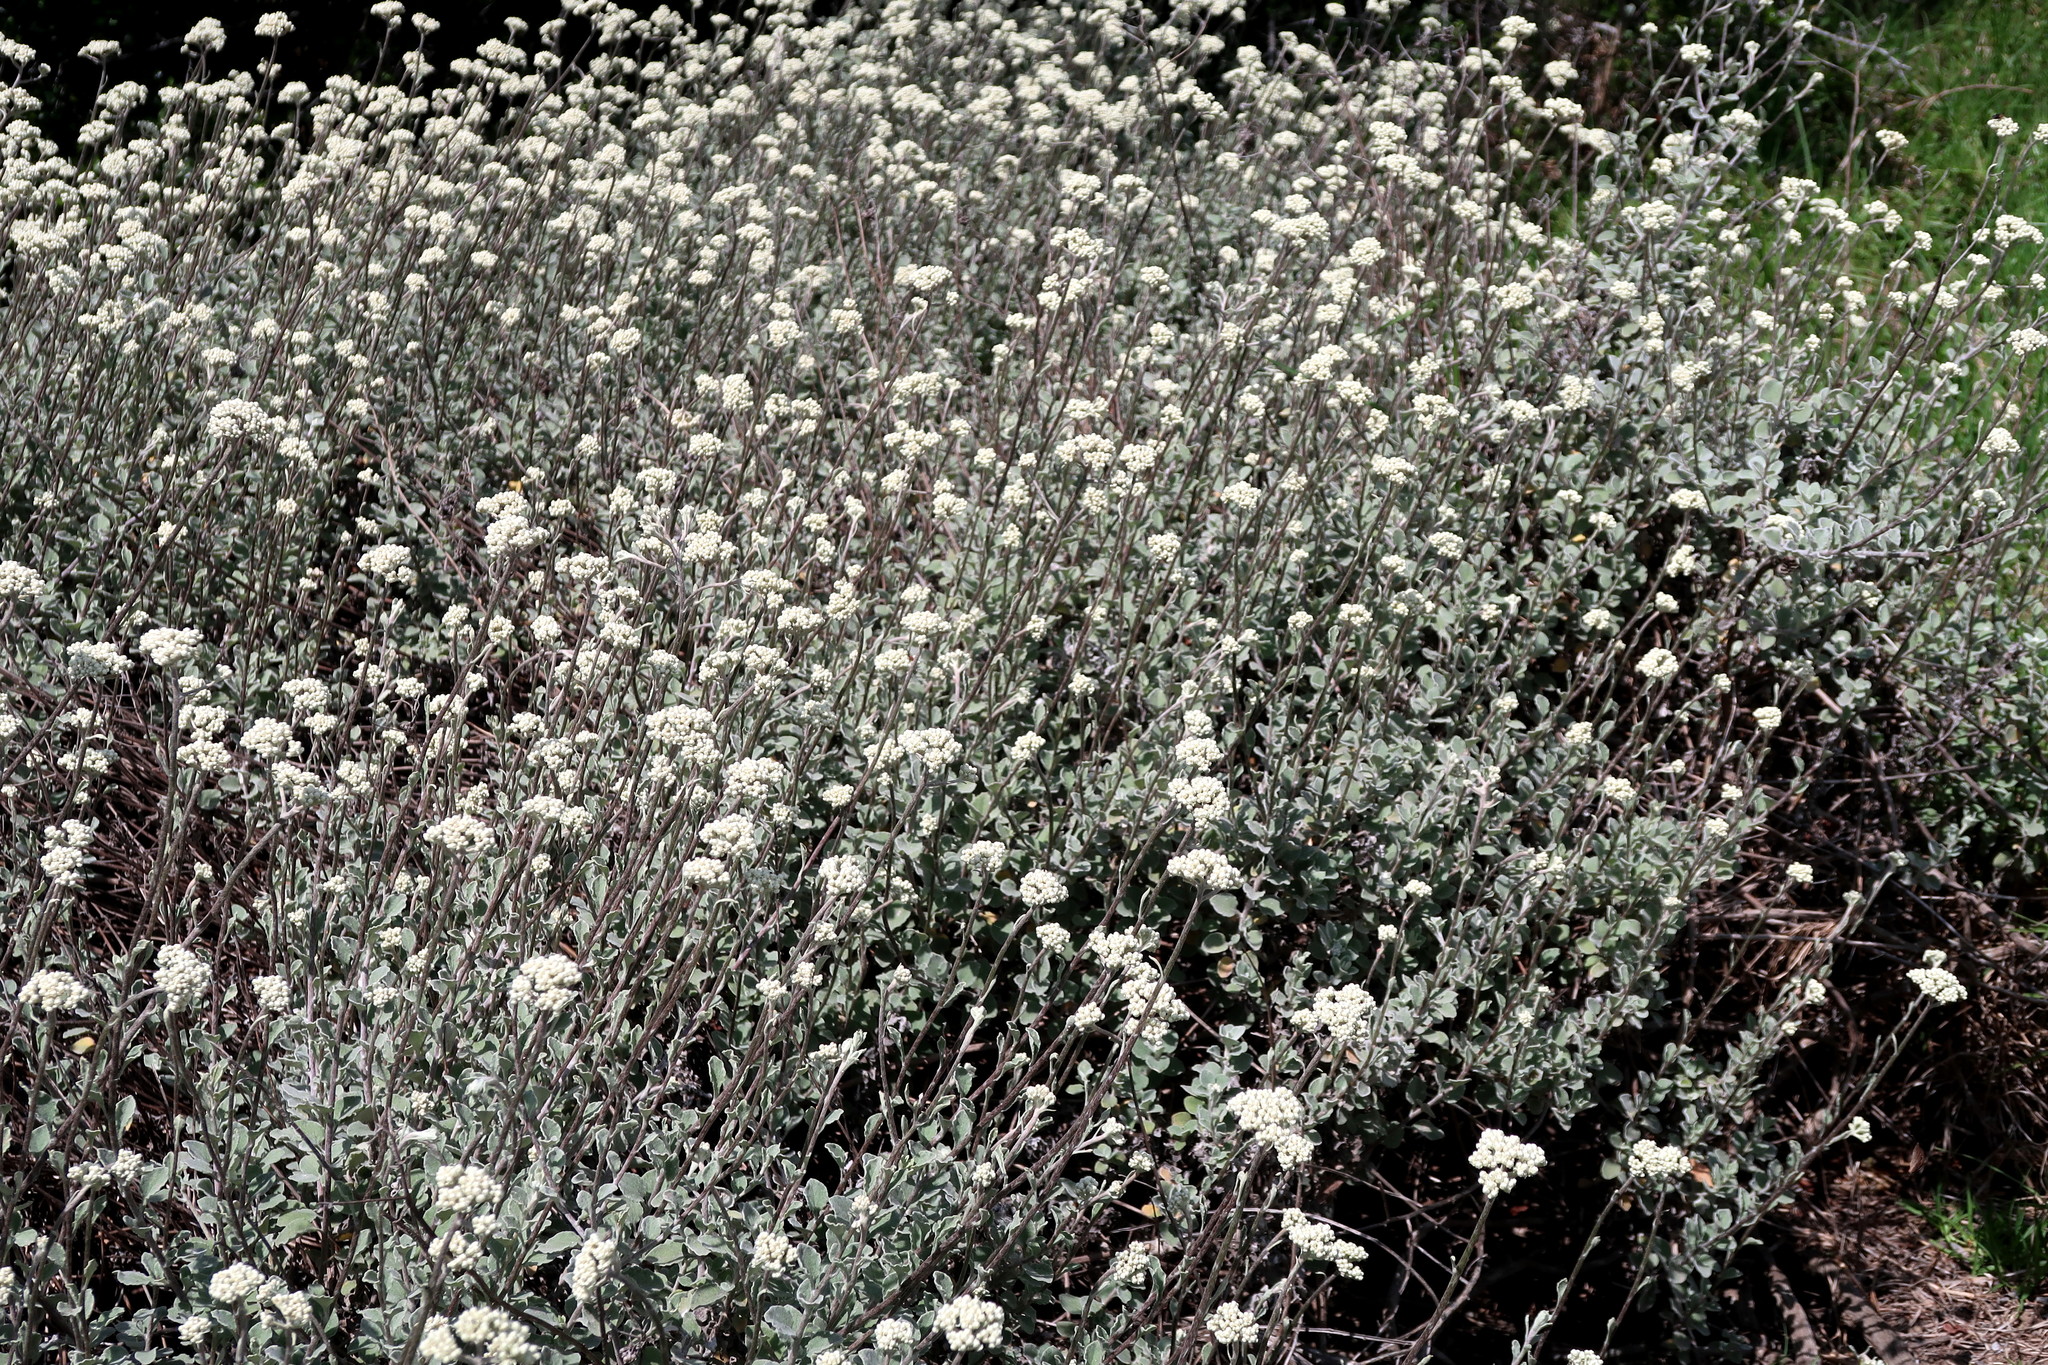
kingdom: Plantae
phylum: Tracheophyta
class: Magnoliopsida
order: Asterales
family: Asteraceae
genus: Helichrysum
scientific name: Helichrysum petiolare
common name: Licorice-plant
